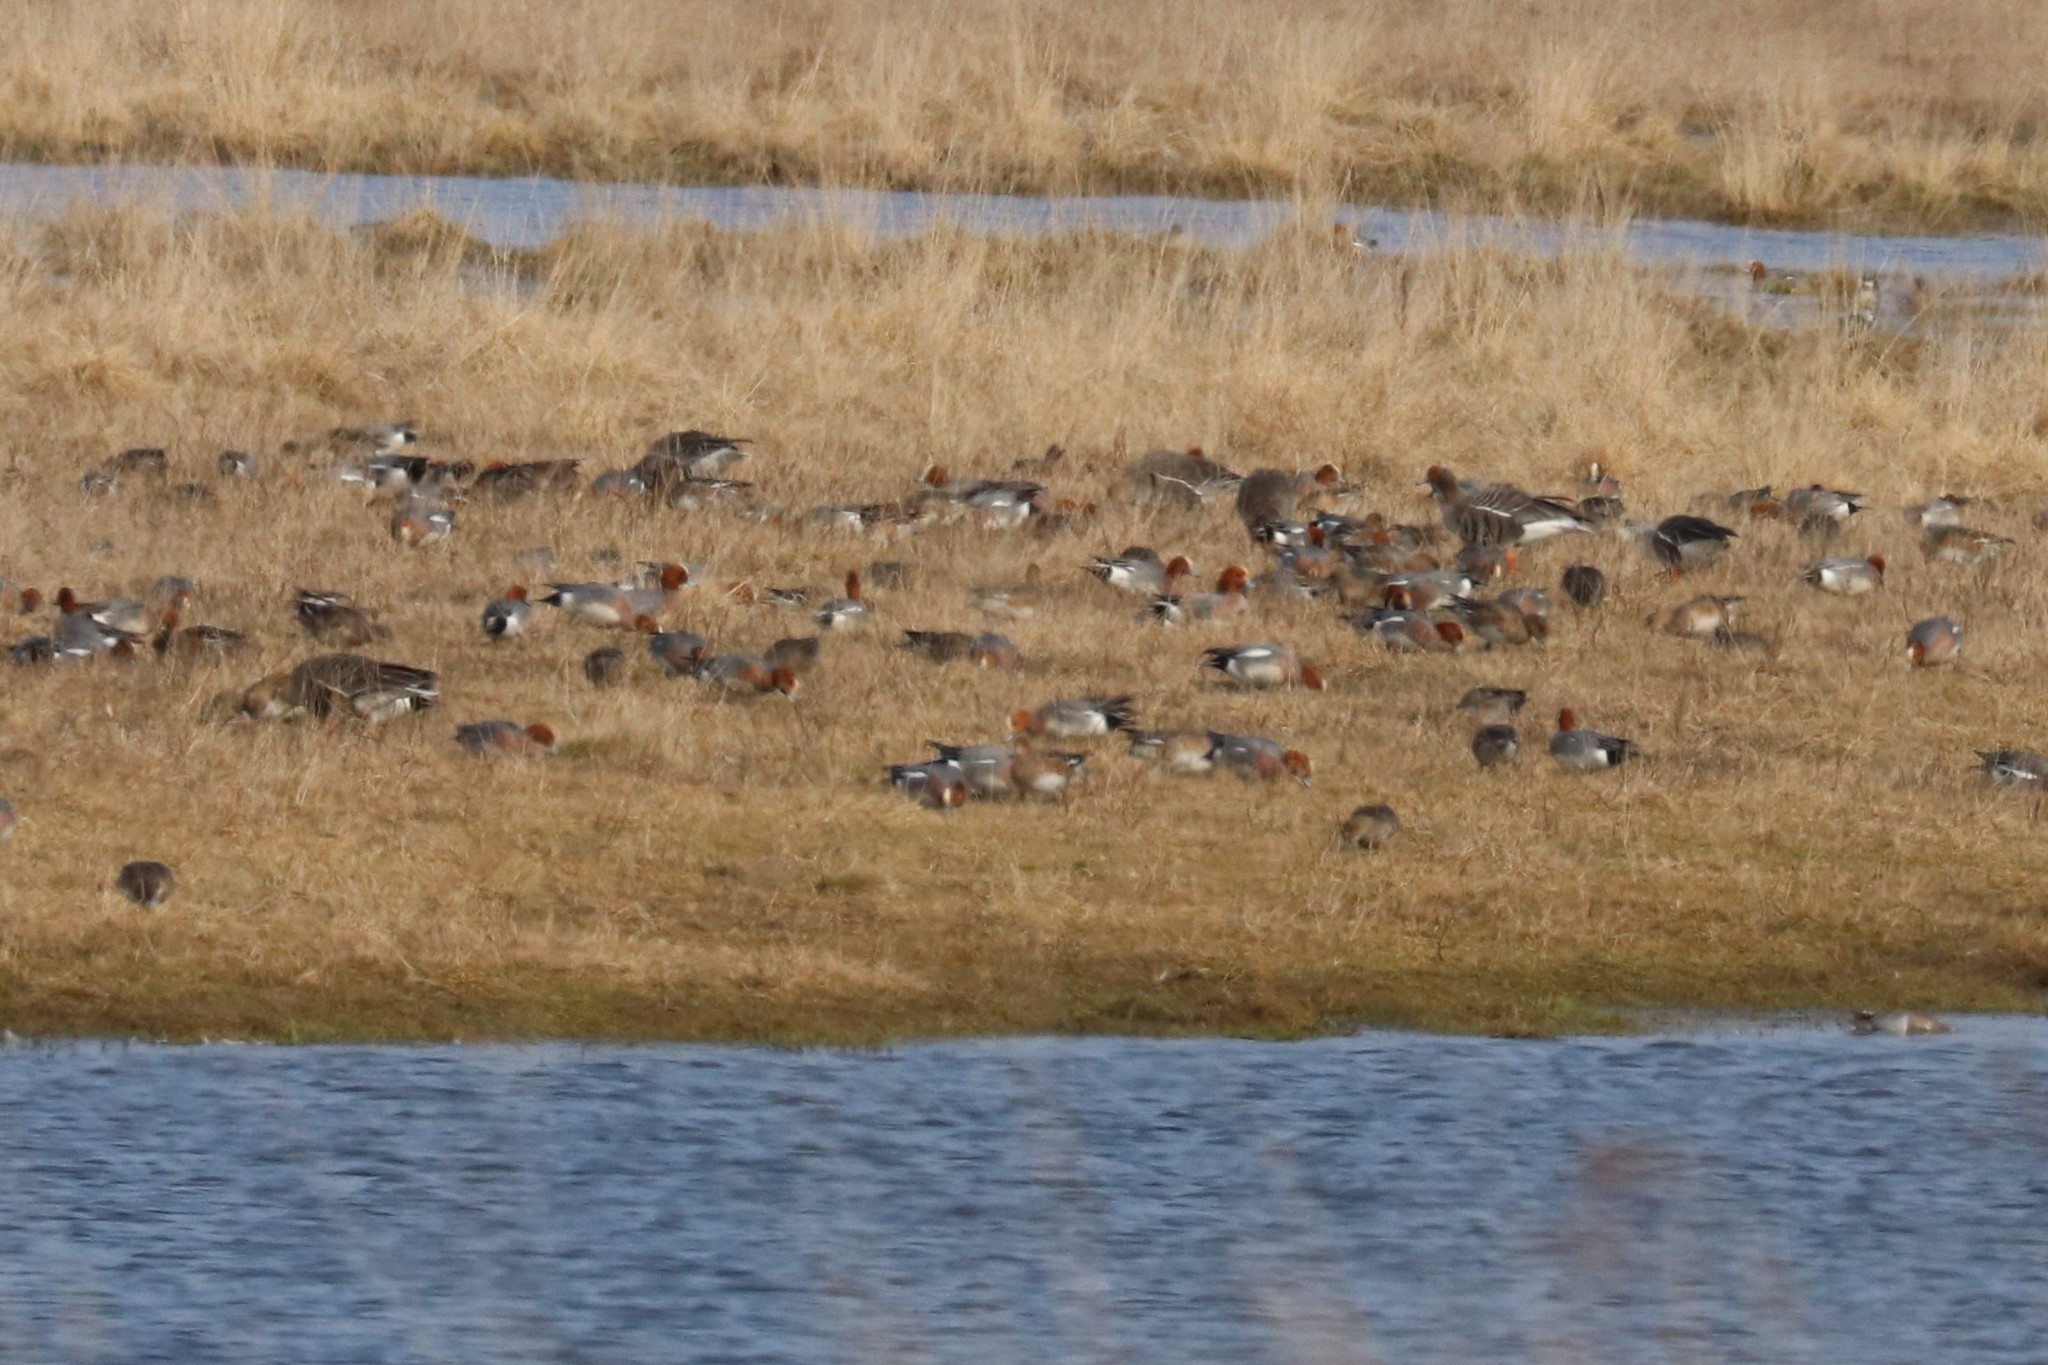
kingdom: Animalia
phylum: Chordata
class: Aves
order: Anseriformes
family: Anatidae
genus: Mareca
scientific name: Mareca penelope
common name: Eurasian wigeon
